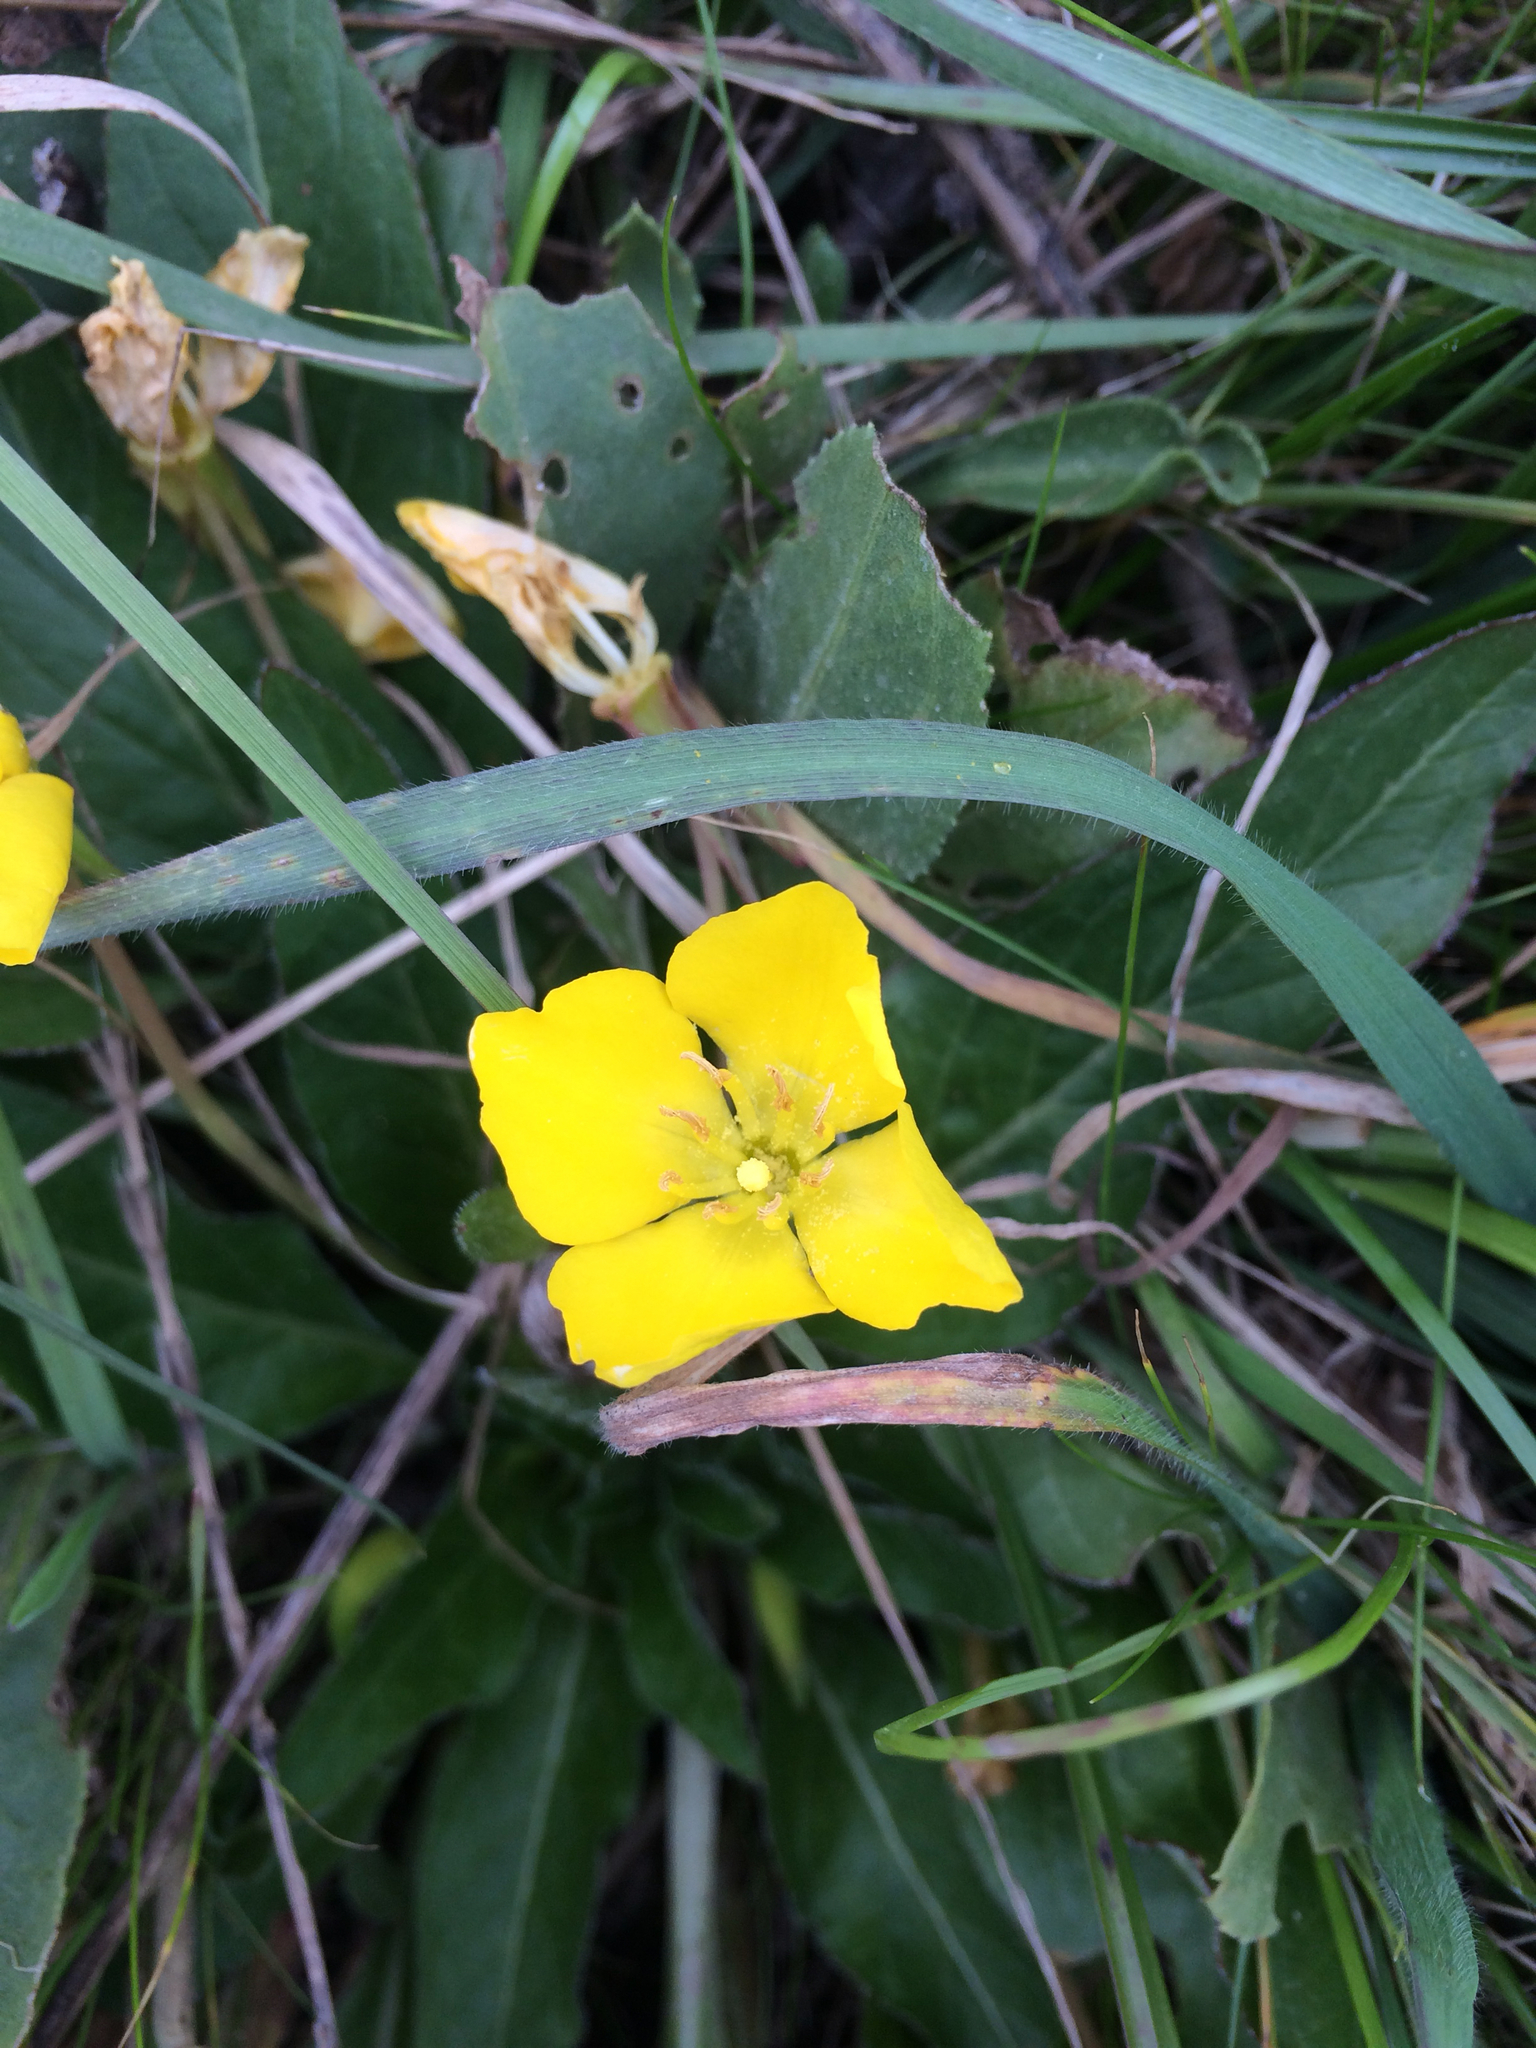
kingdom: Plantae
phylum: Tracheophyta
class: Magnoliopsida
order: Myrtales
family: Onagraceae
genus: Taraxia
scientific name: Taraxia ovata
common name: Goldeneggs
